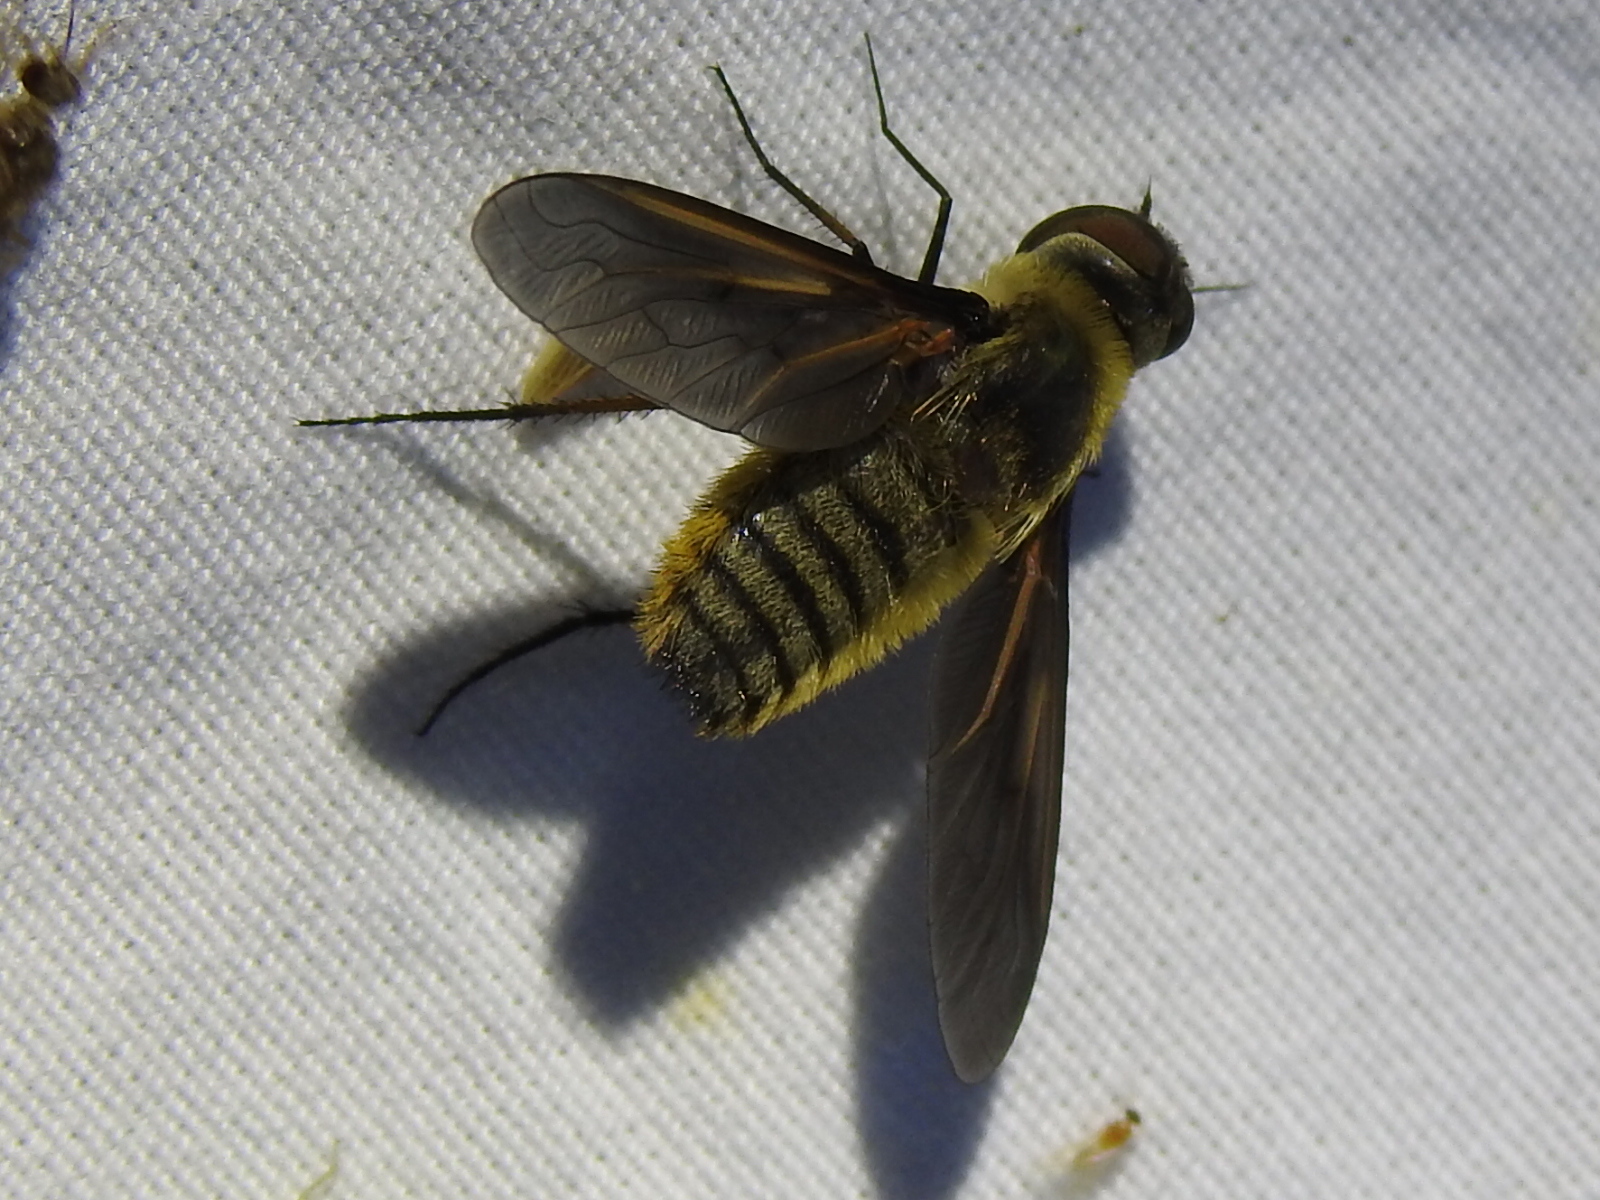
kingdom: Animalia
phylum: Arthropoda
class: Insecta
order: Diptera
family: Bombyliidae
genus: Poecilanthrax
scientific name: Poecilanthrax lucifer
